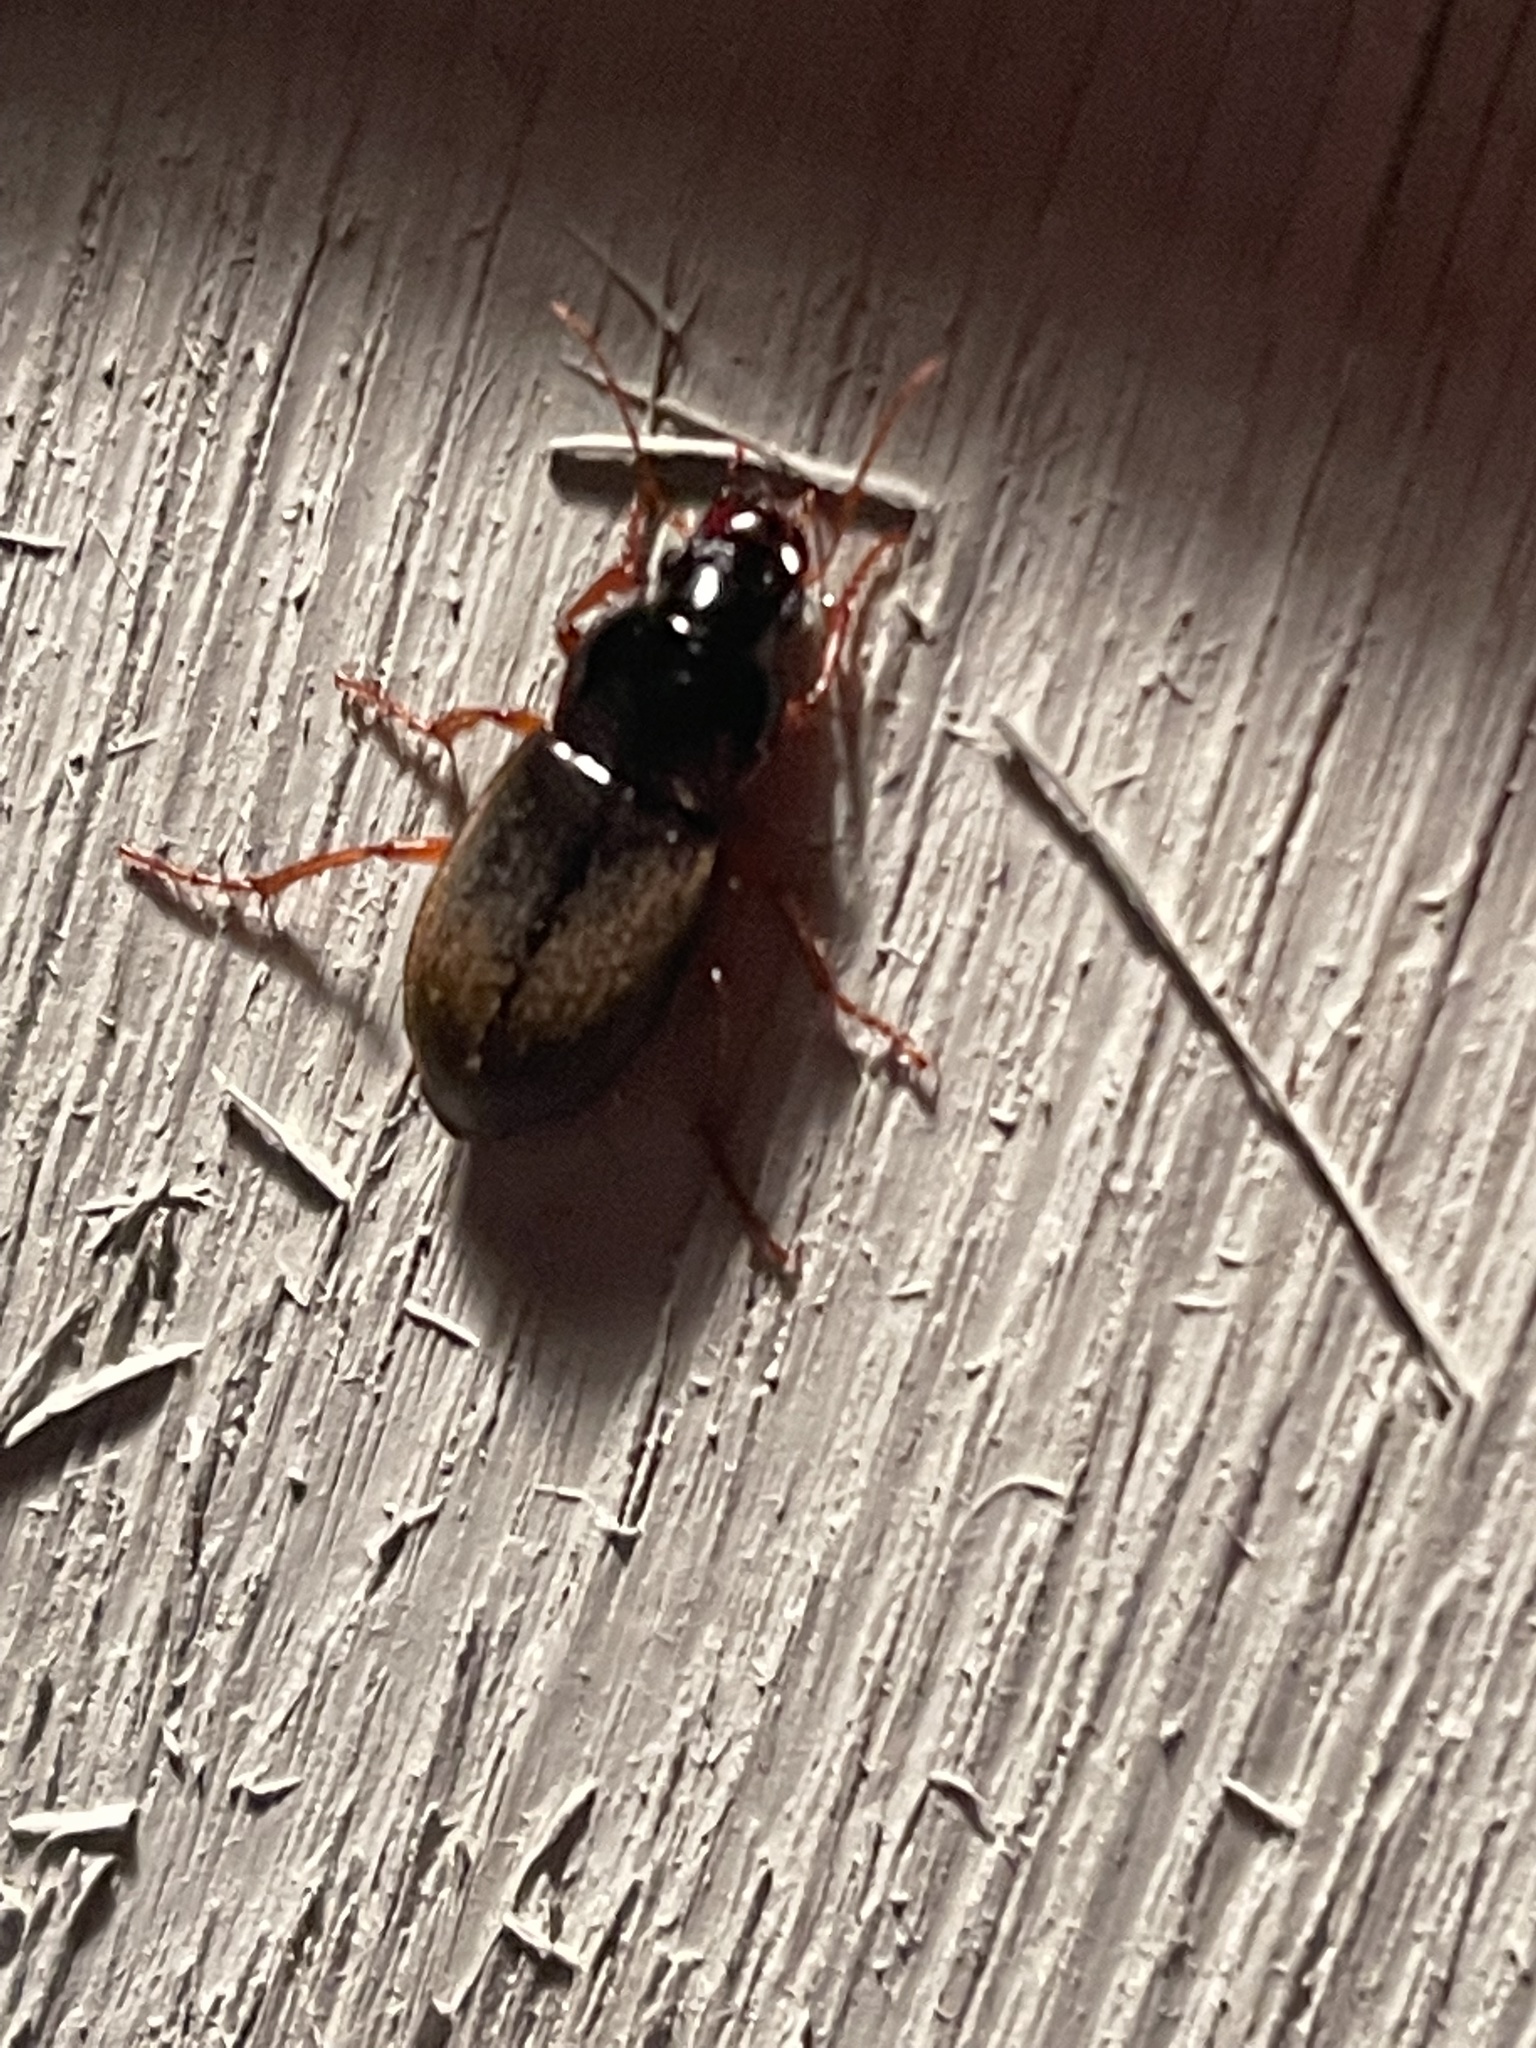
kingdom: Animalia
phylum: Arthropoda
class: Insecta
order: Coleoptera
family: Carabidae
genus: Harpalus
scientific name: Harpalus rufipes
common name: Strawberry harp ground beetle
